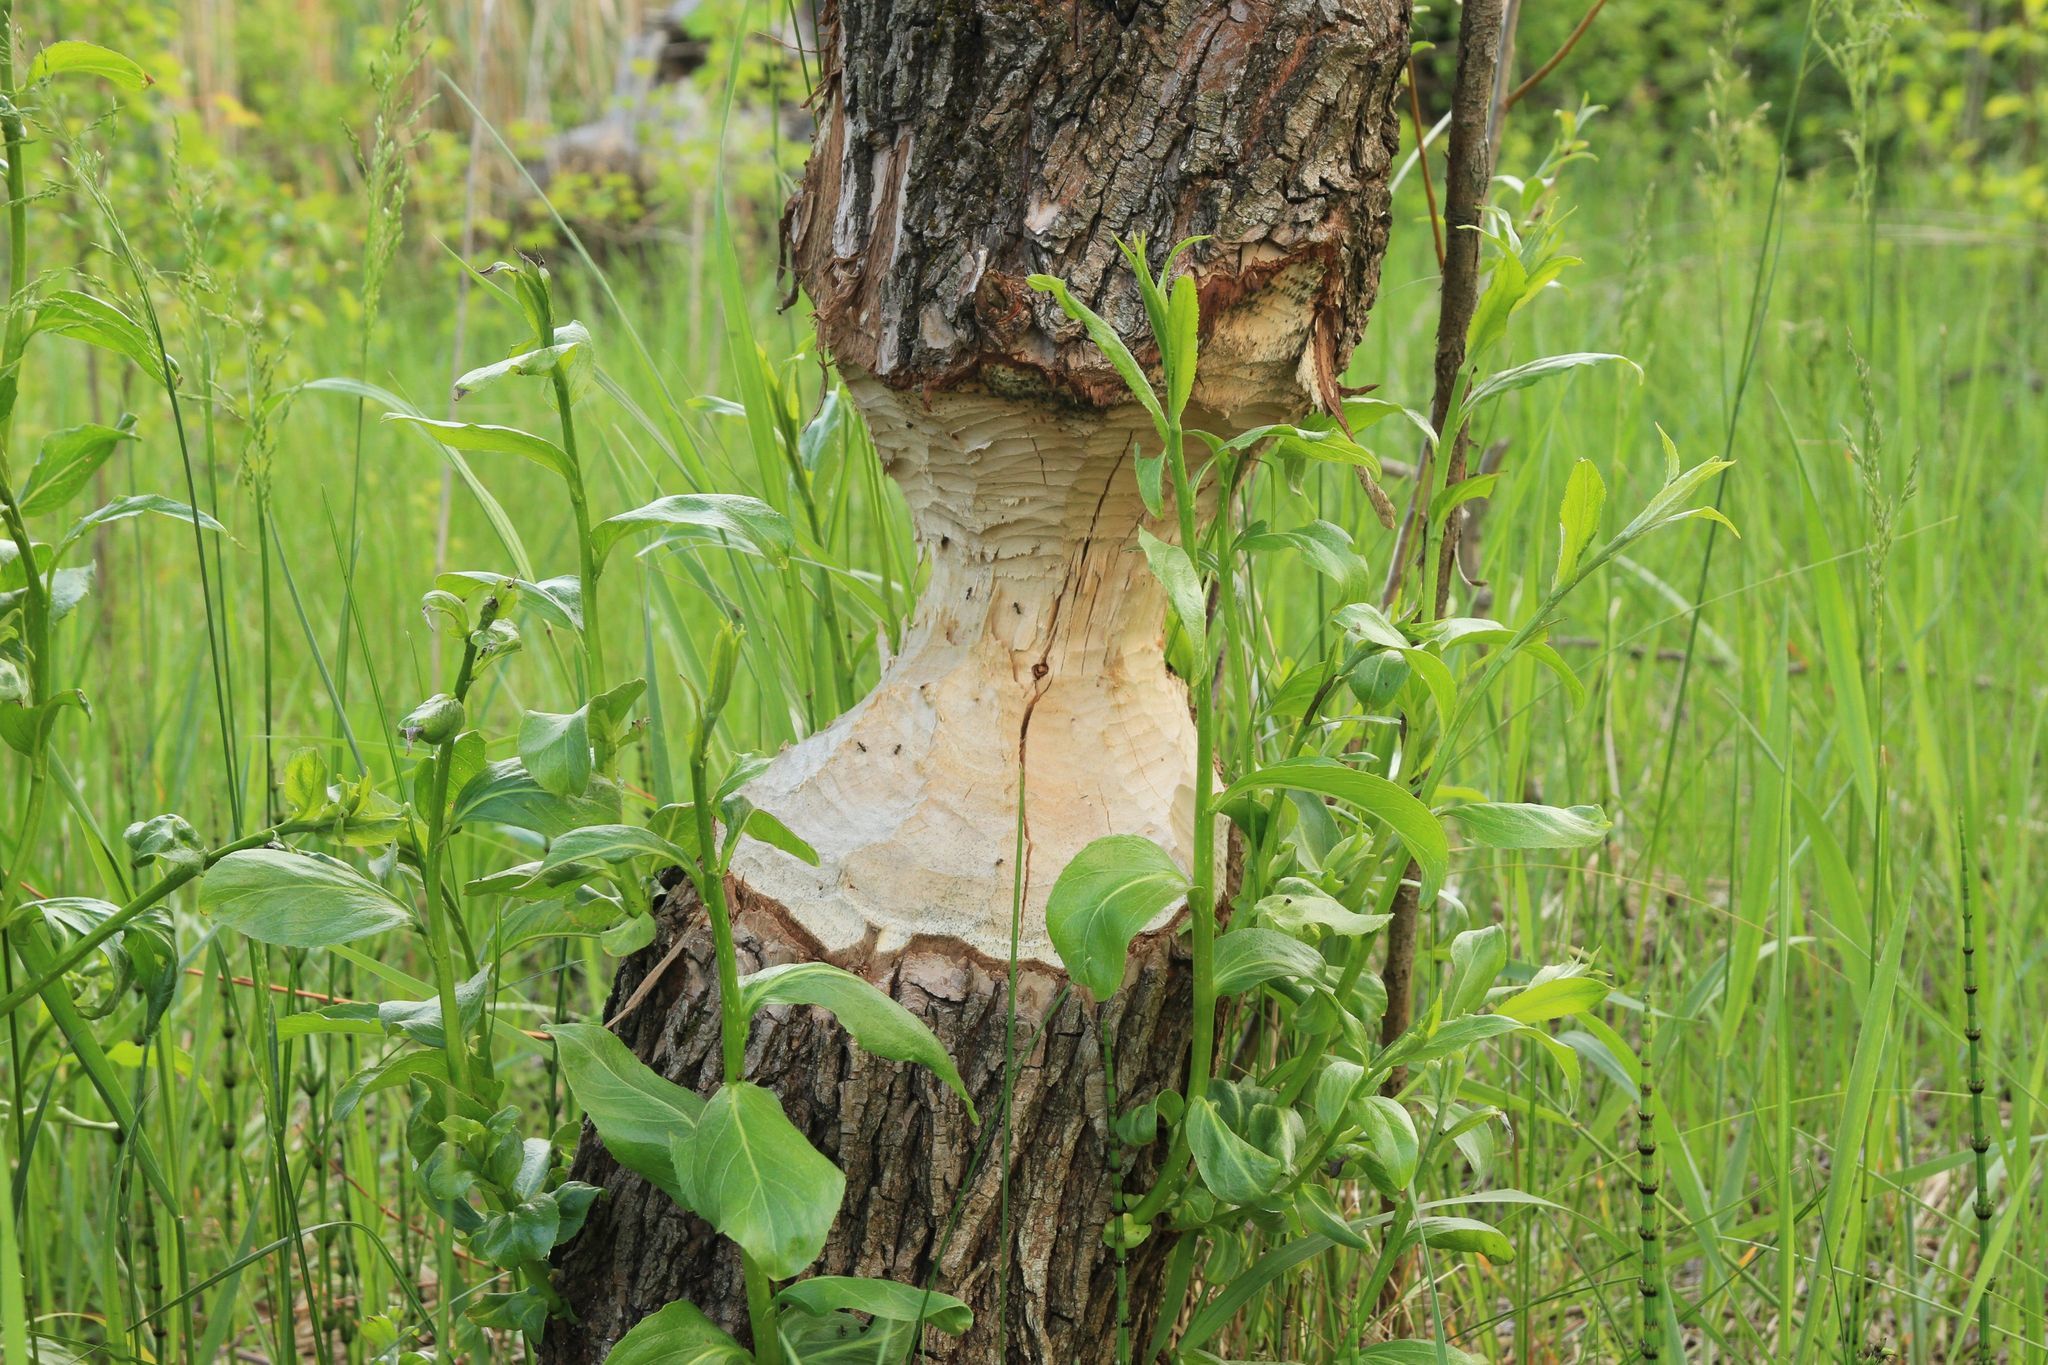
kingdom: Animalia
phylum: Chordata
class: Mammalia
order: Rodentia
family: Castoridae
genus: Castor
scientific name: Castor fiber
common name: Eurasian beaver
